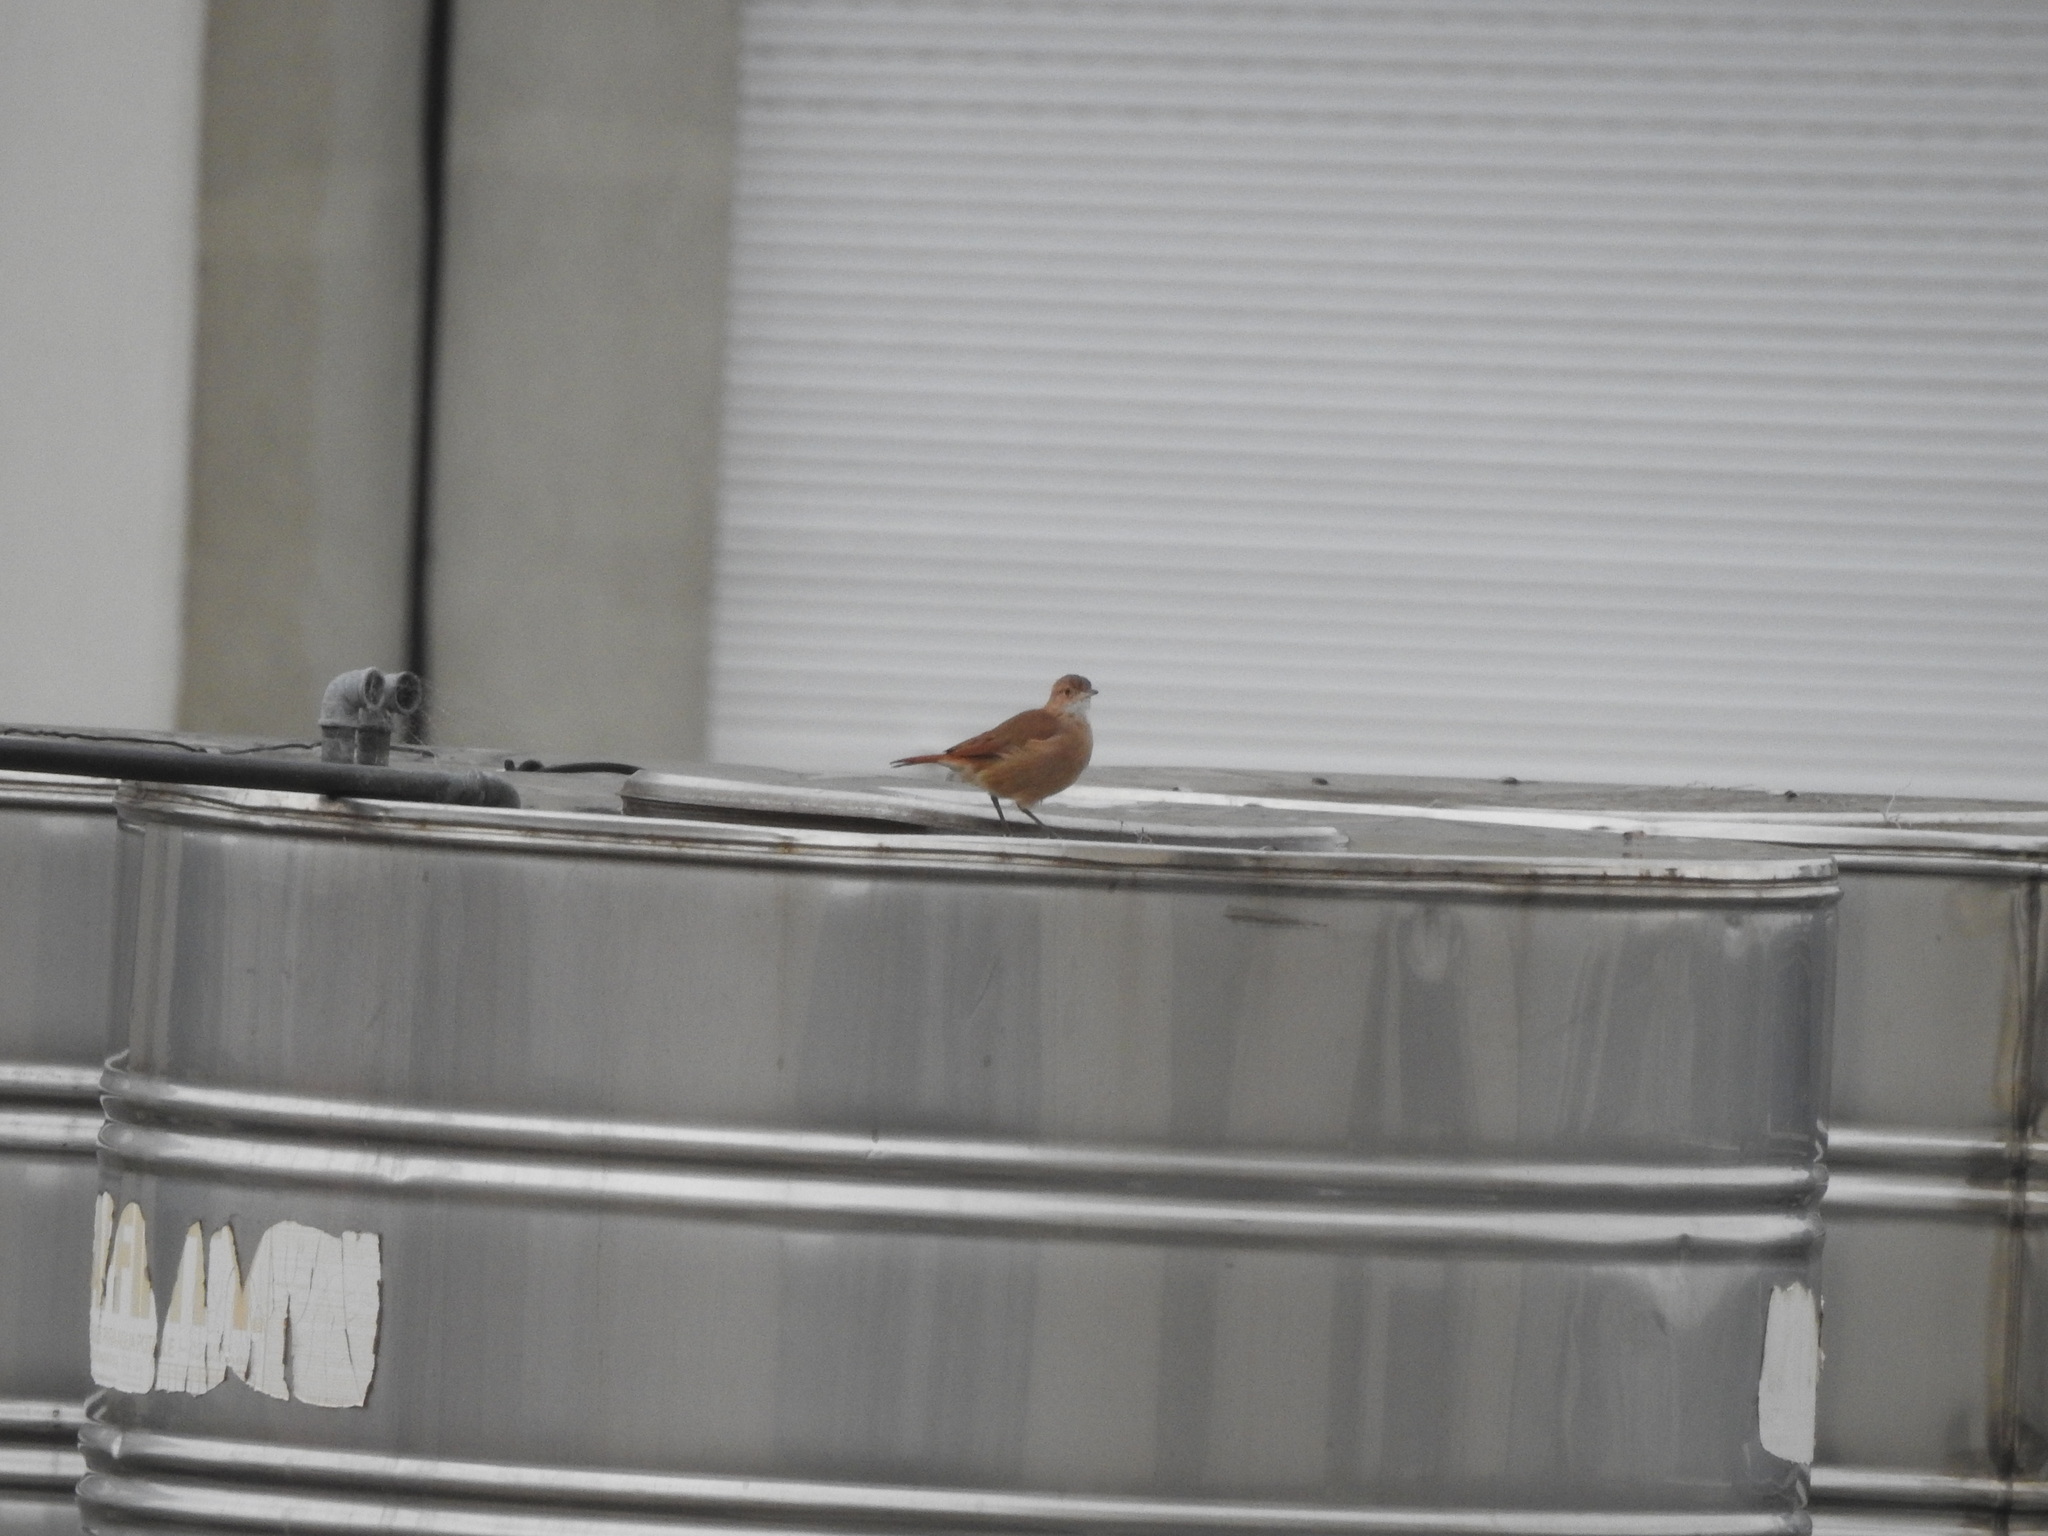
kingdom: Animalia
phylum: Chordata
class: Aves
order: Passeriformes
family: Furnariidae
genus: Furnarius
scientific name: Furnarius rufus
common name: Rufous hornero
